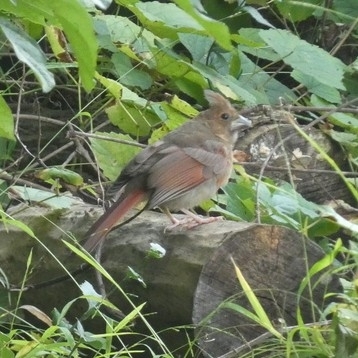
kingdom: Animalia
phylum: Chordata
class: Aves
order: Passeriformes
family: Cardinalidae
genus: Cardinalis
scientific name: Cardinalis cardinalis
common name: Northern cardinal
